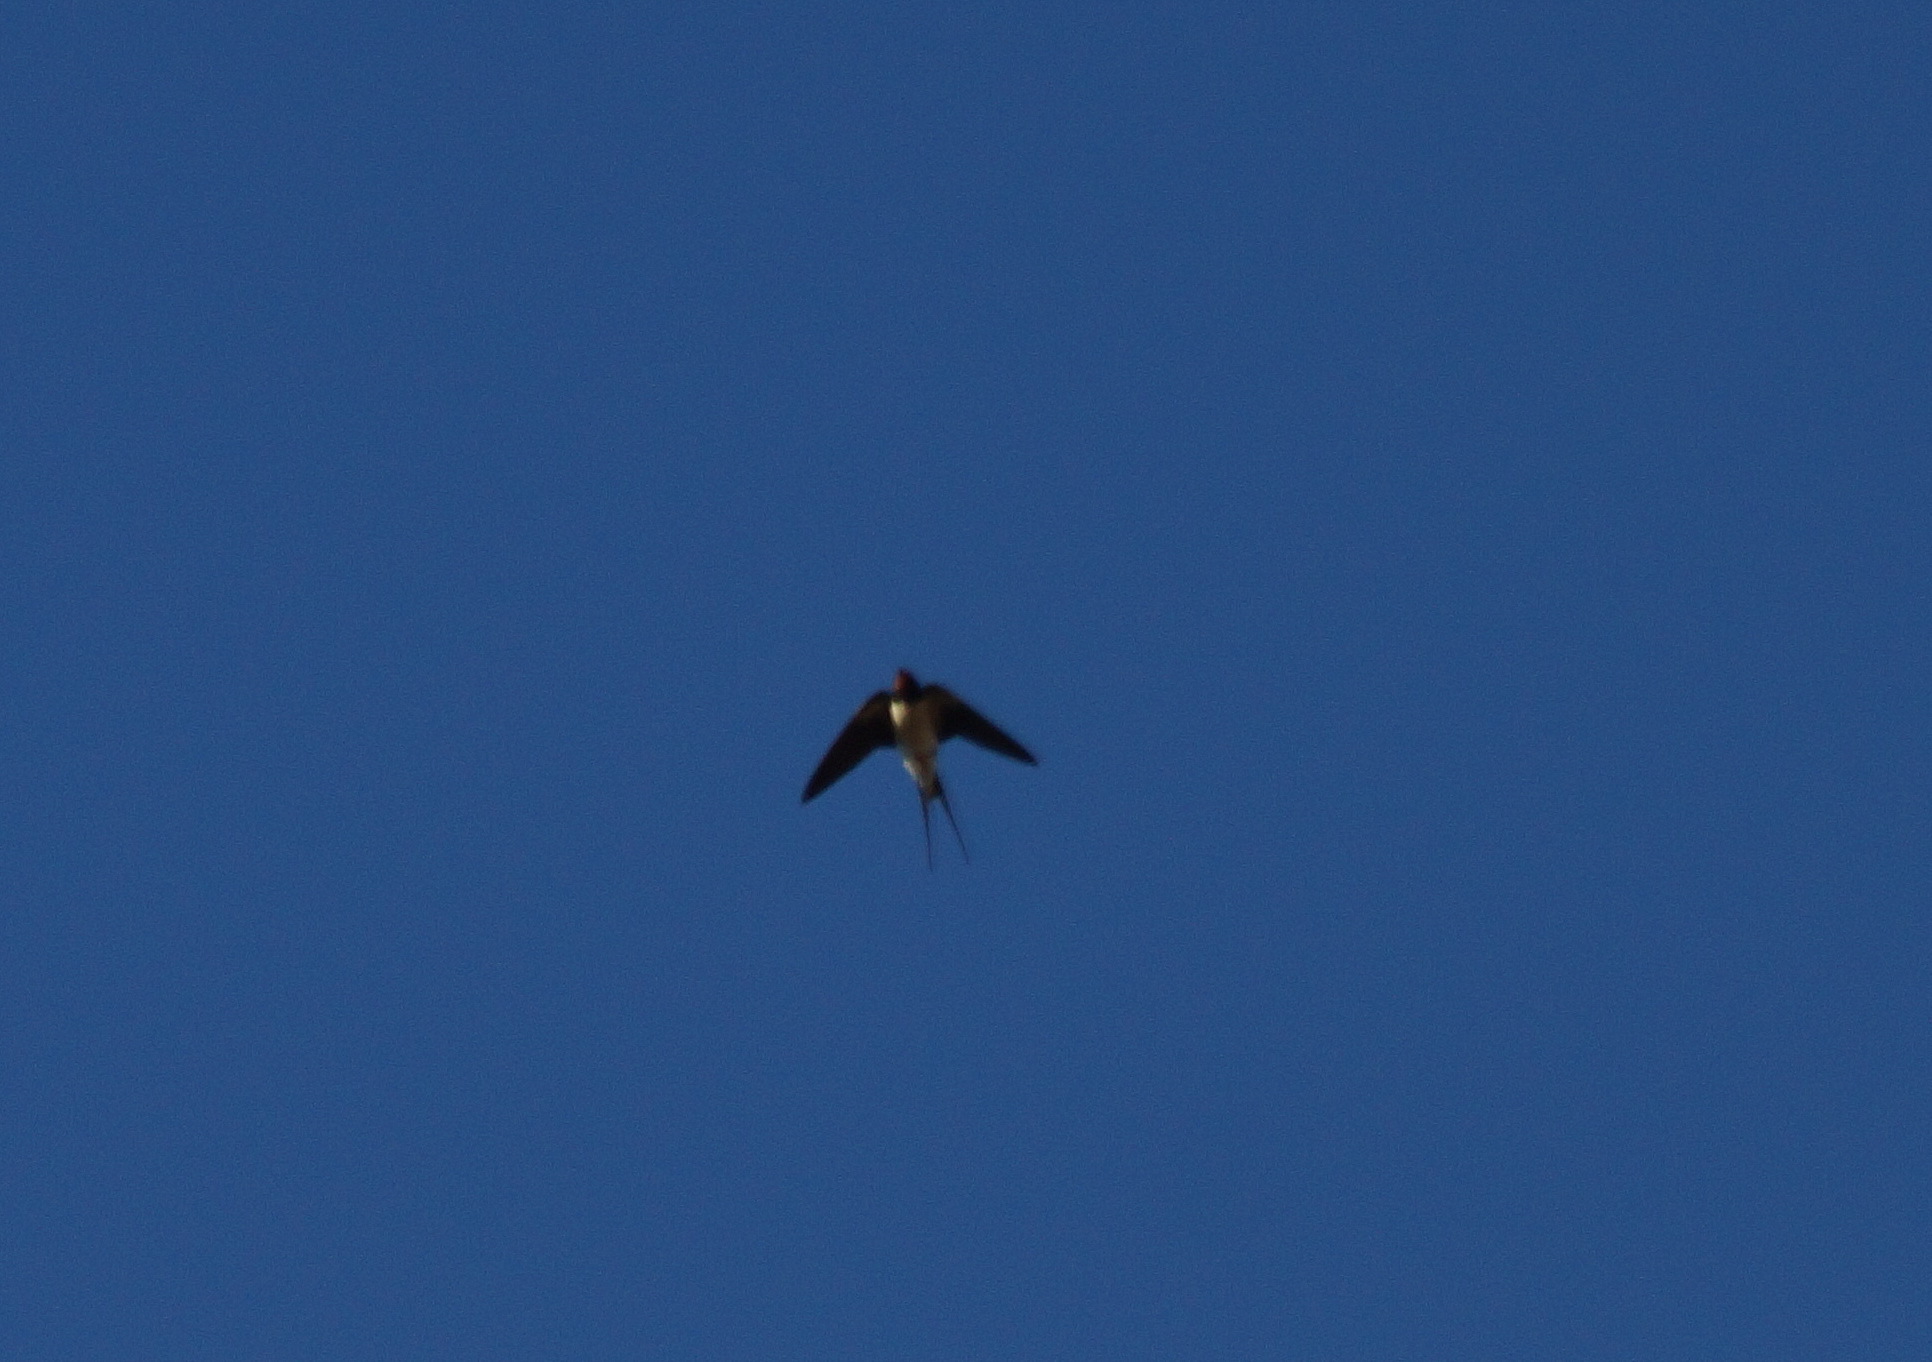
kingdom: Animalia
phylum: Chordata
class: Aves
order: Passeriformes
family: Hirundinidae
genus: Hirundo
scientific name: Hirundo rustica
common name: Barn swallow
